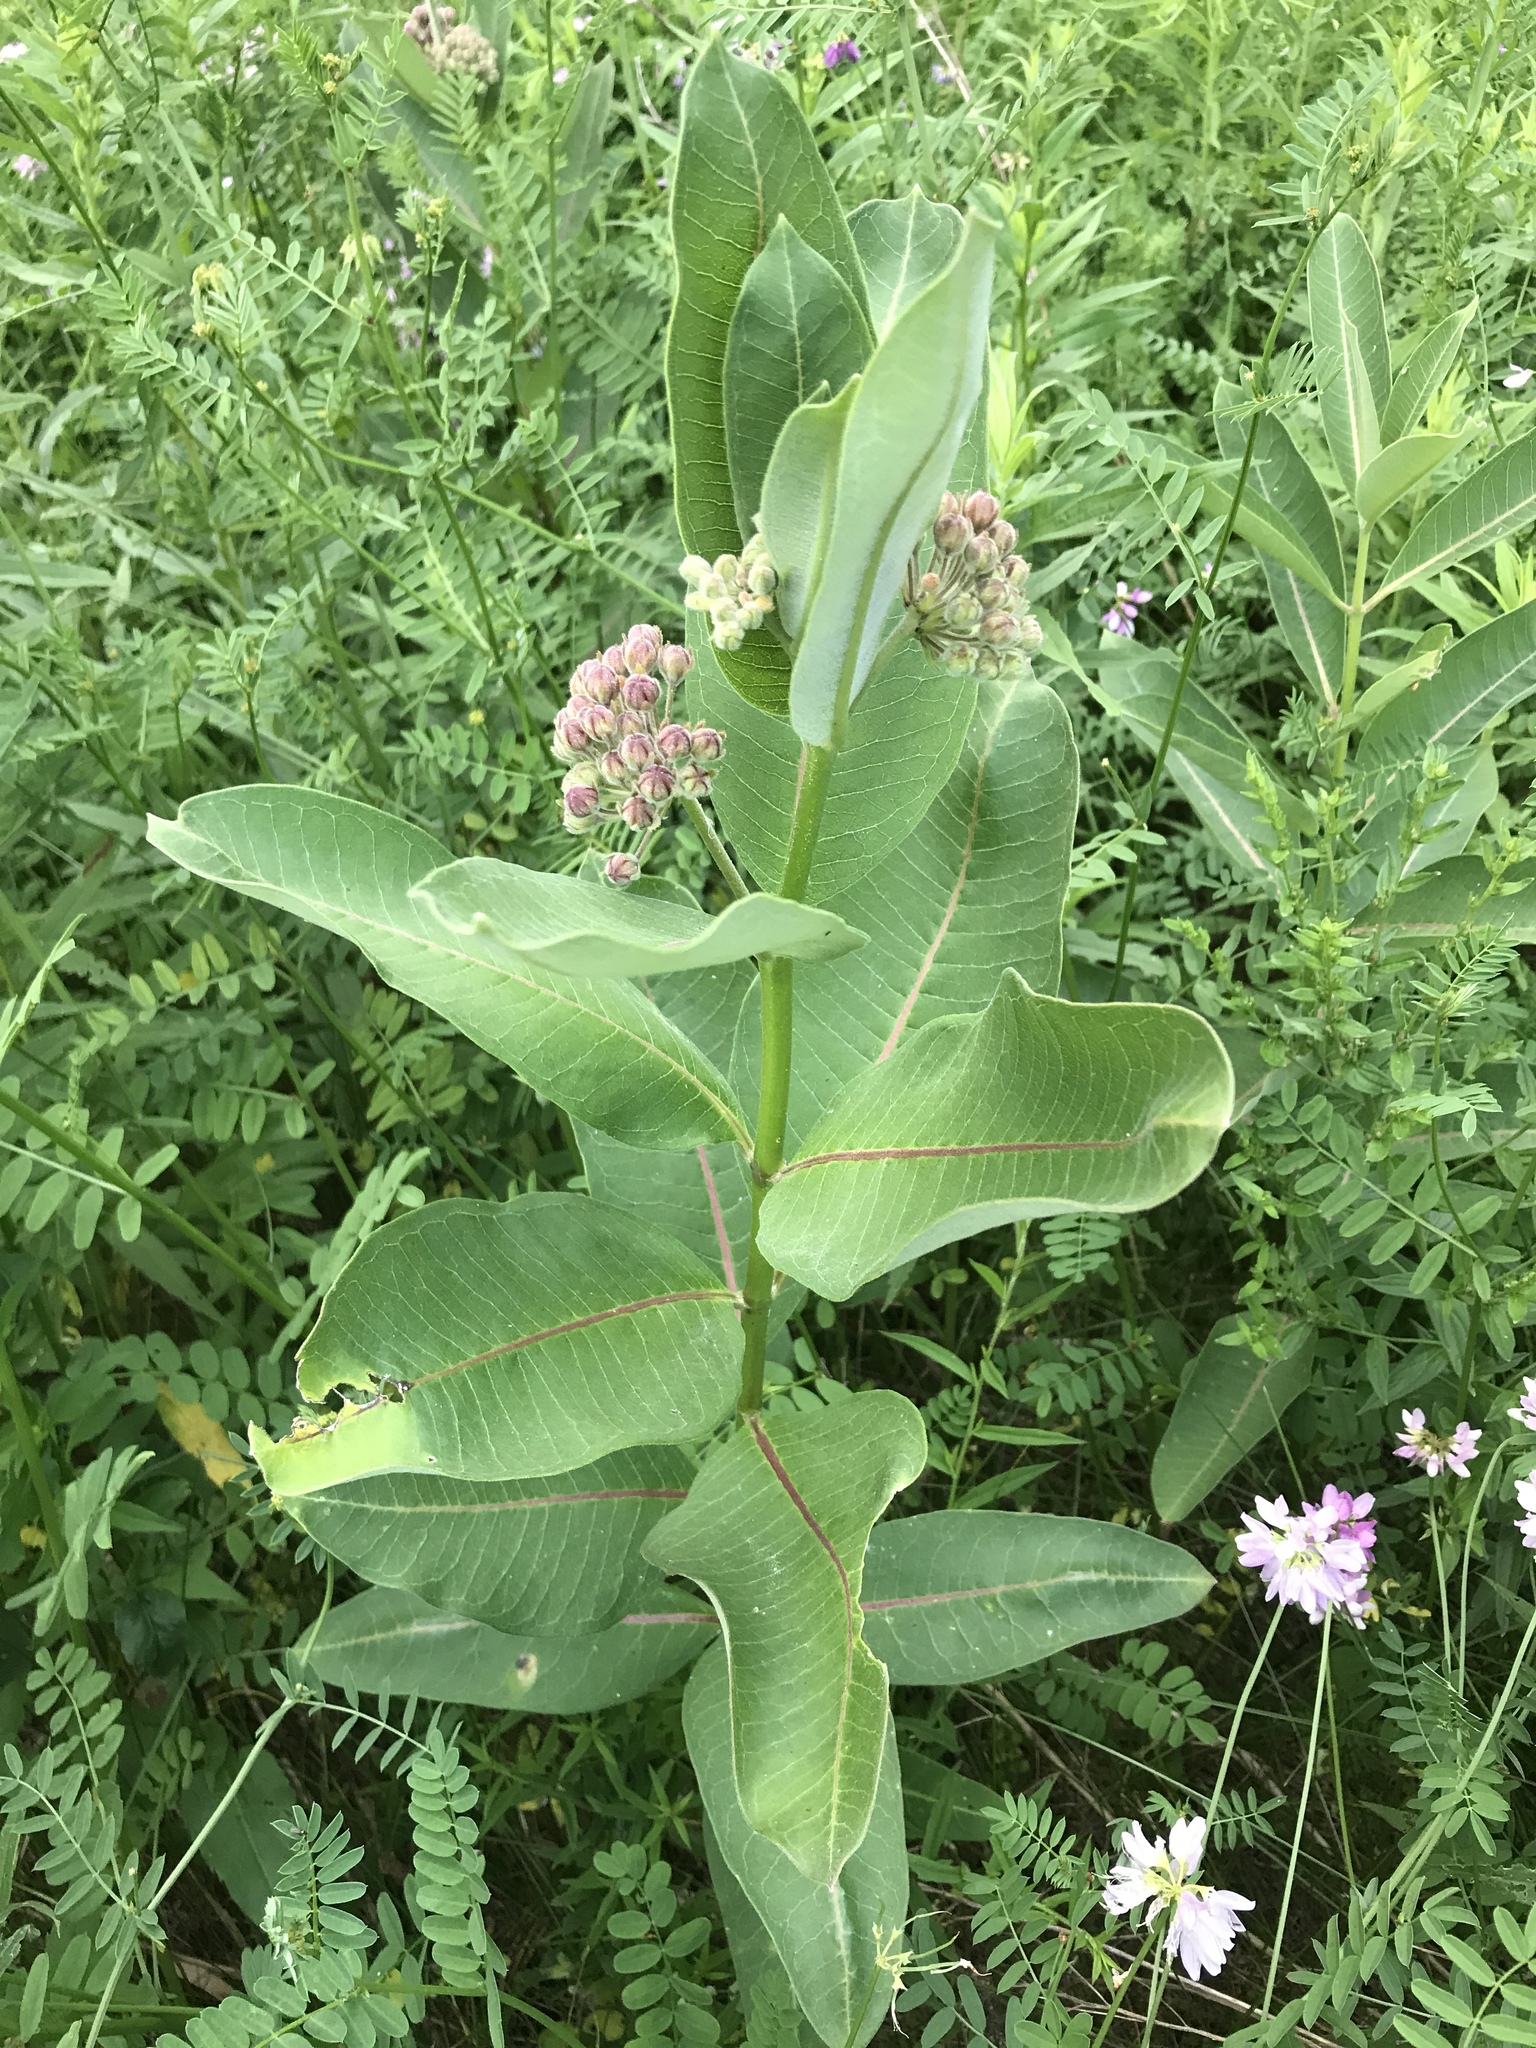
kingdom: Plantae
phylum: Tracheophyta
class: Magnoliopsida
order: Gentianales
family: Apocynaceae
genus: Asclepias
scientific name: Asclepias syriaca
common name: Common milkweed
